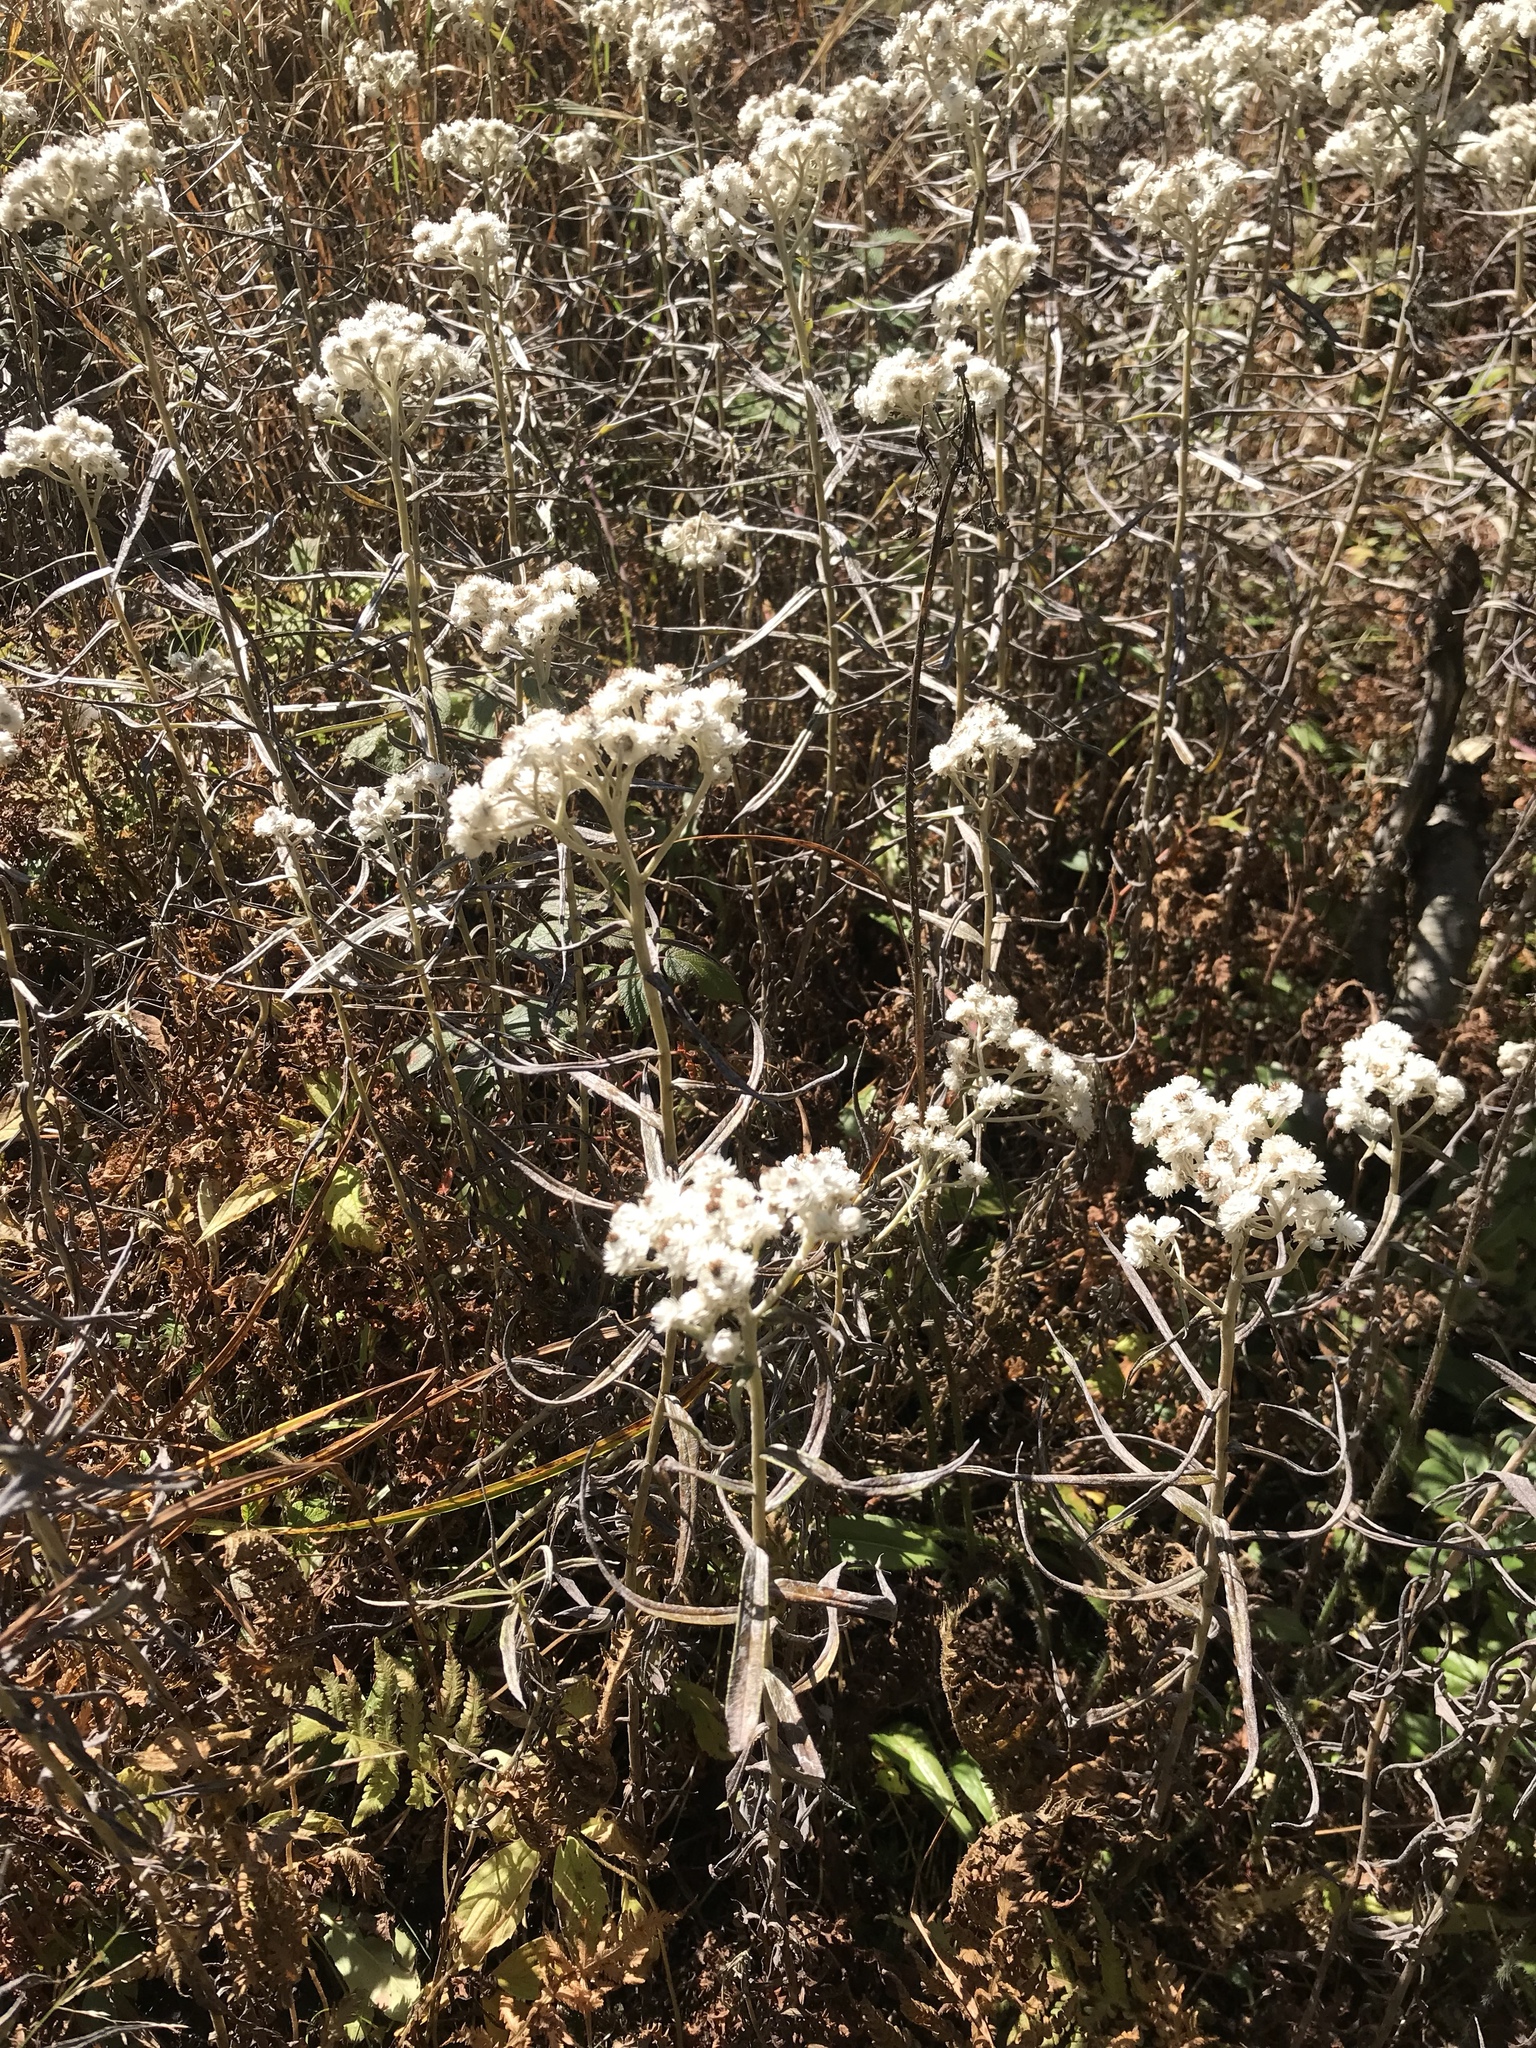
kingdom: Plantae
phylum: Tracheophyta
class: Magnoliopsida
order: Asterales
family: Asteraceae
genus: Anaphalis
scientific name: Anaphalis margaritacea
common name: Pearly everlasting
